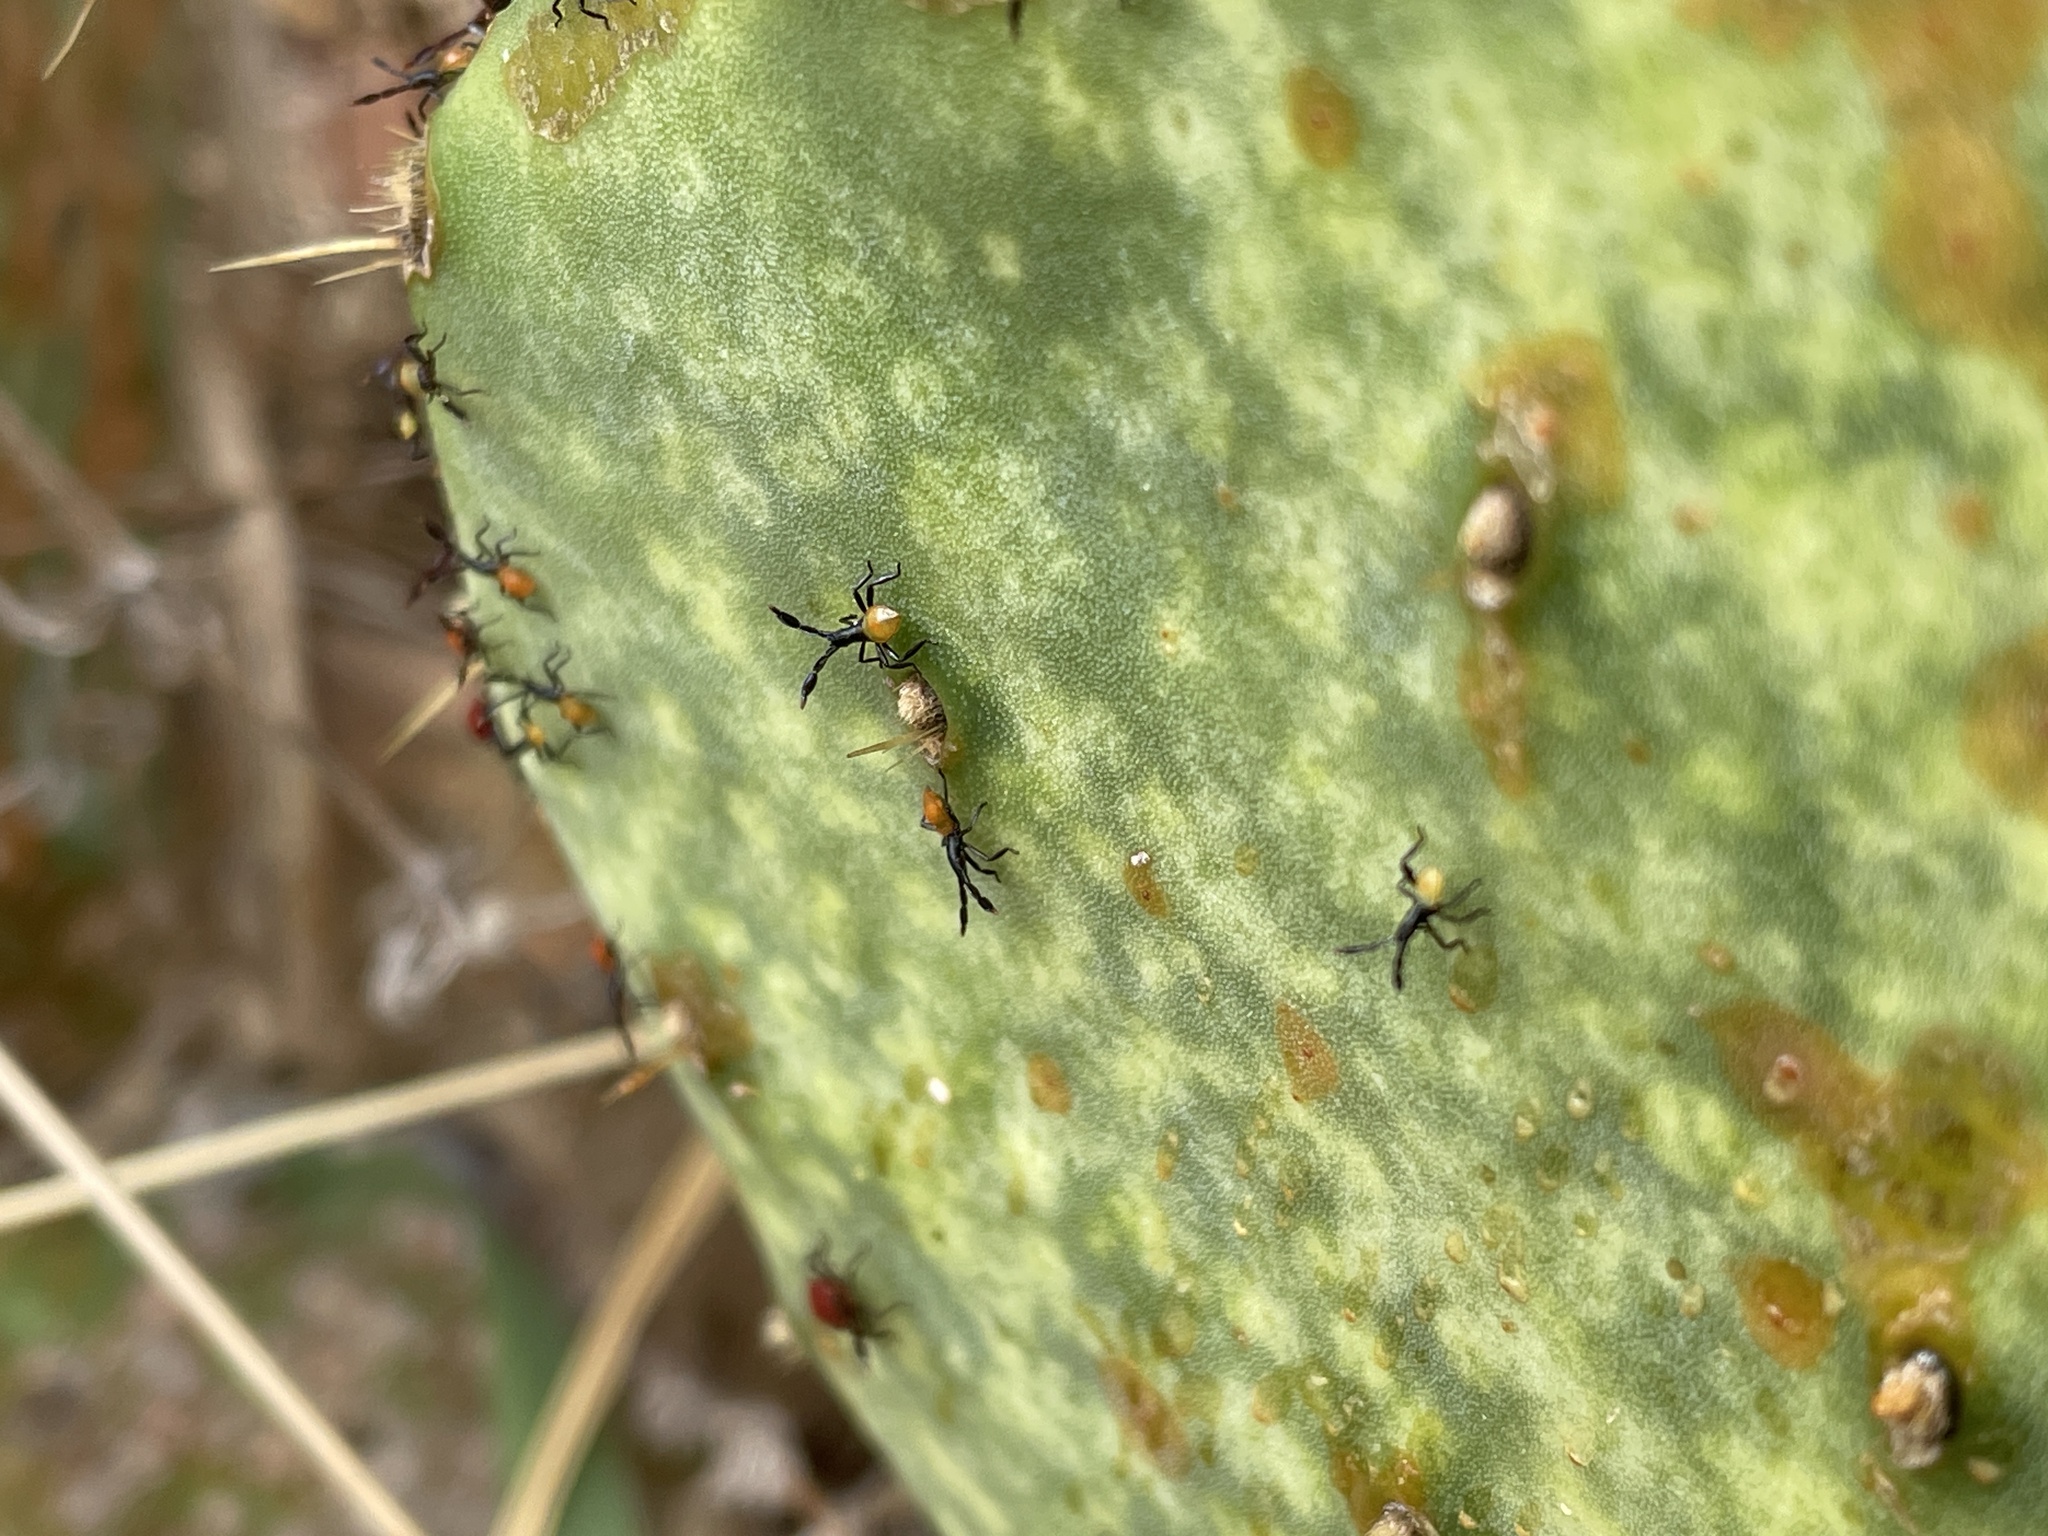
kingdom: Animalia
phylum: Arthropoda
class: Insecta
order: Hemiptera
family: Coreidae
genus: Chelinidea
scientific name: Chelinidea vittiger
